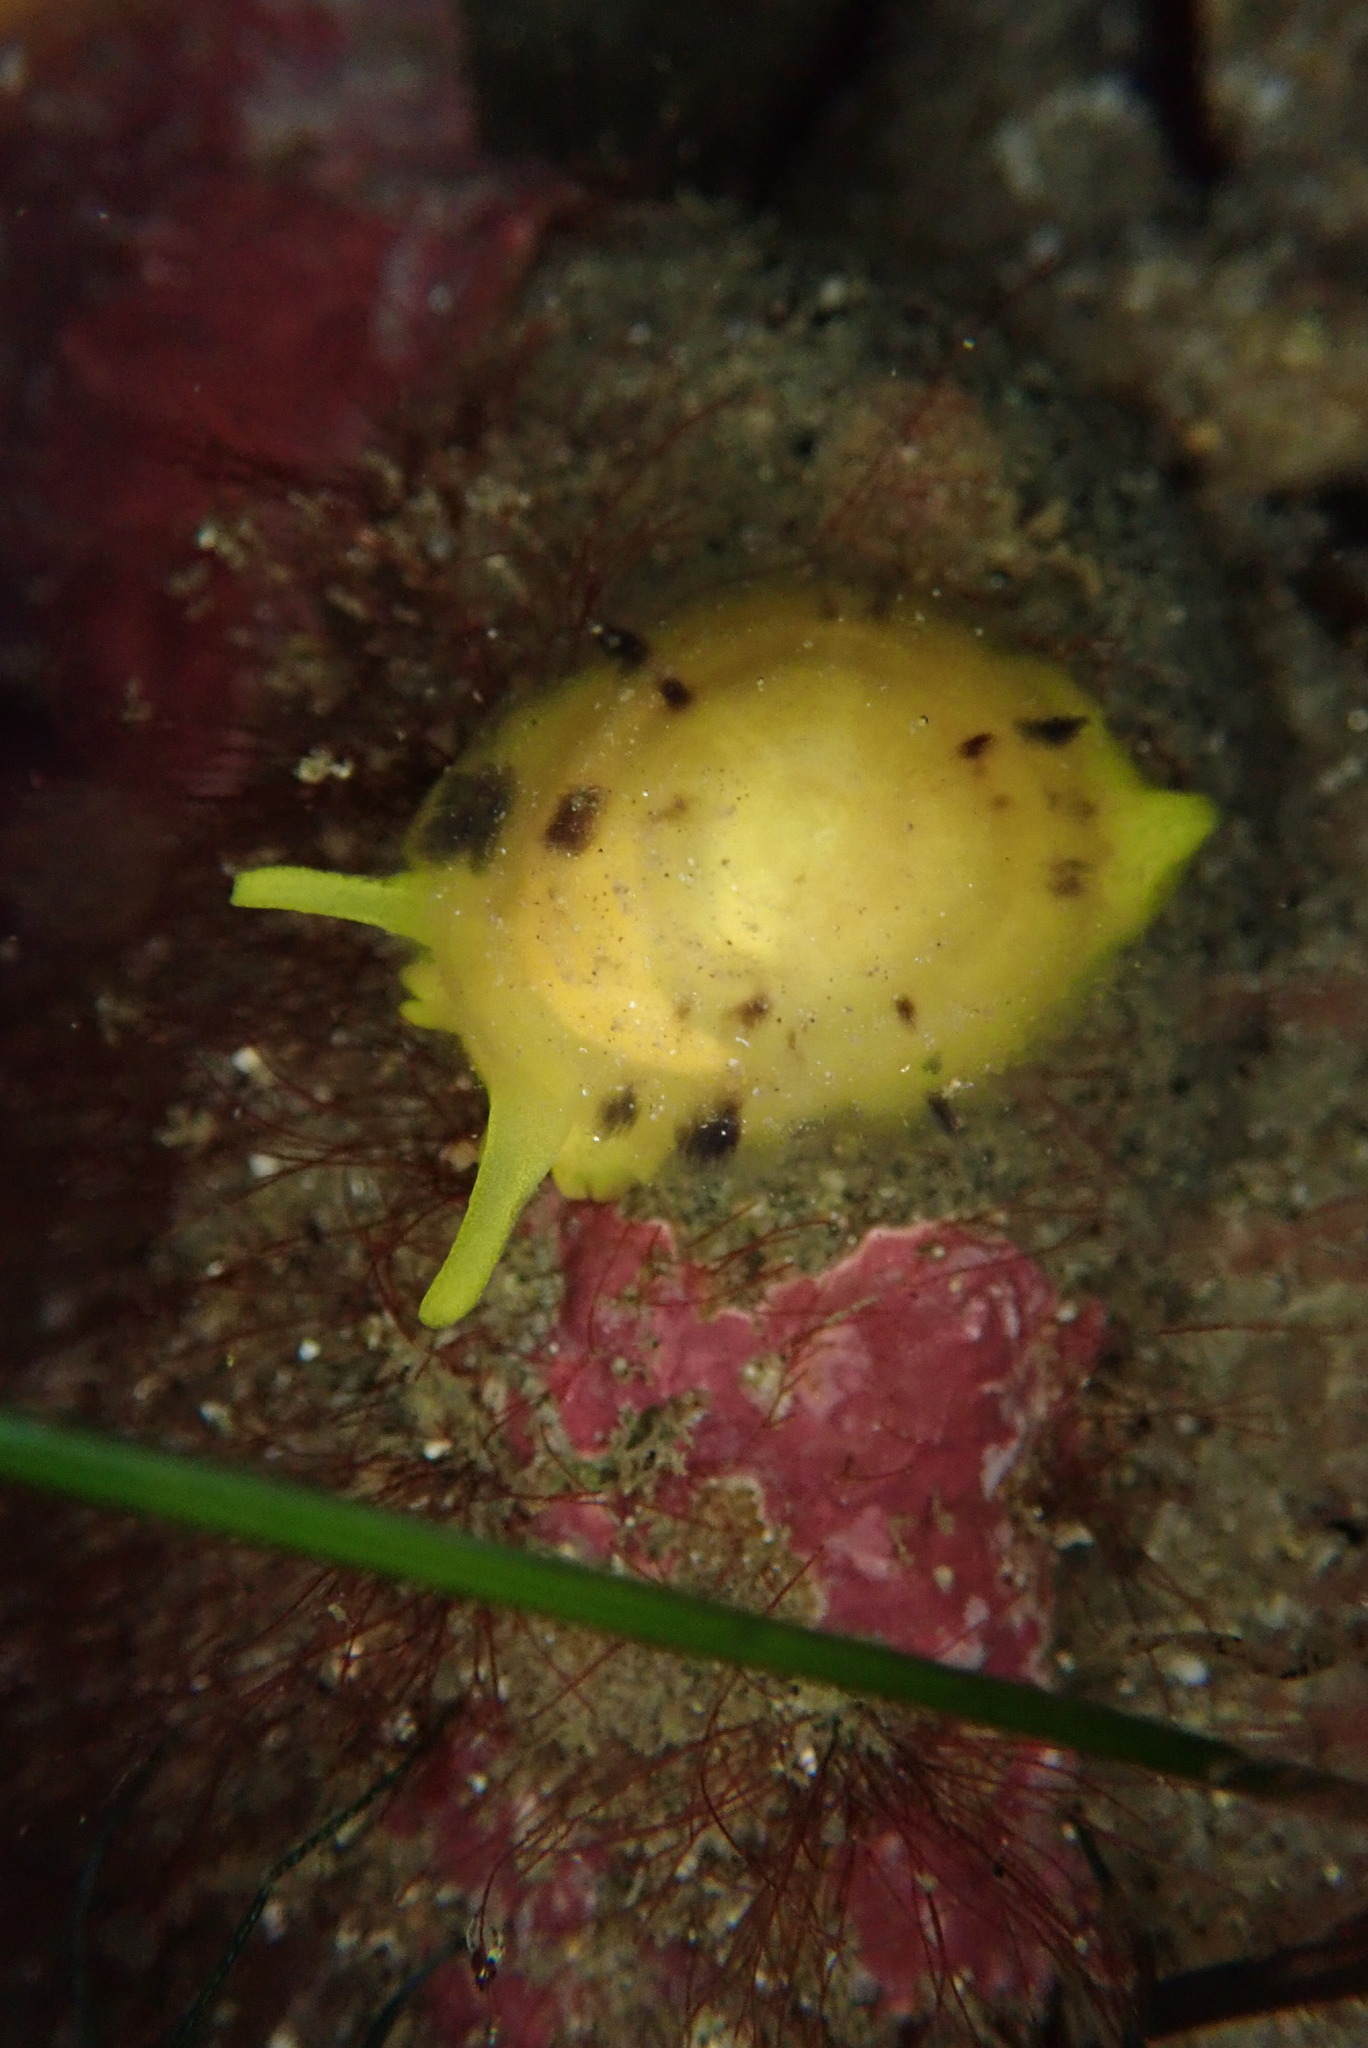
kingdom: Animalia
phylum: Mollusca
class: Gastropoda
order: Umbraculida
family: Tylodinidae
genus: Tylodina
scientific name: Tylodina fungina
